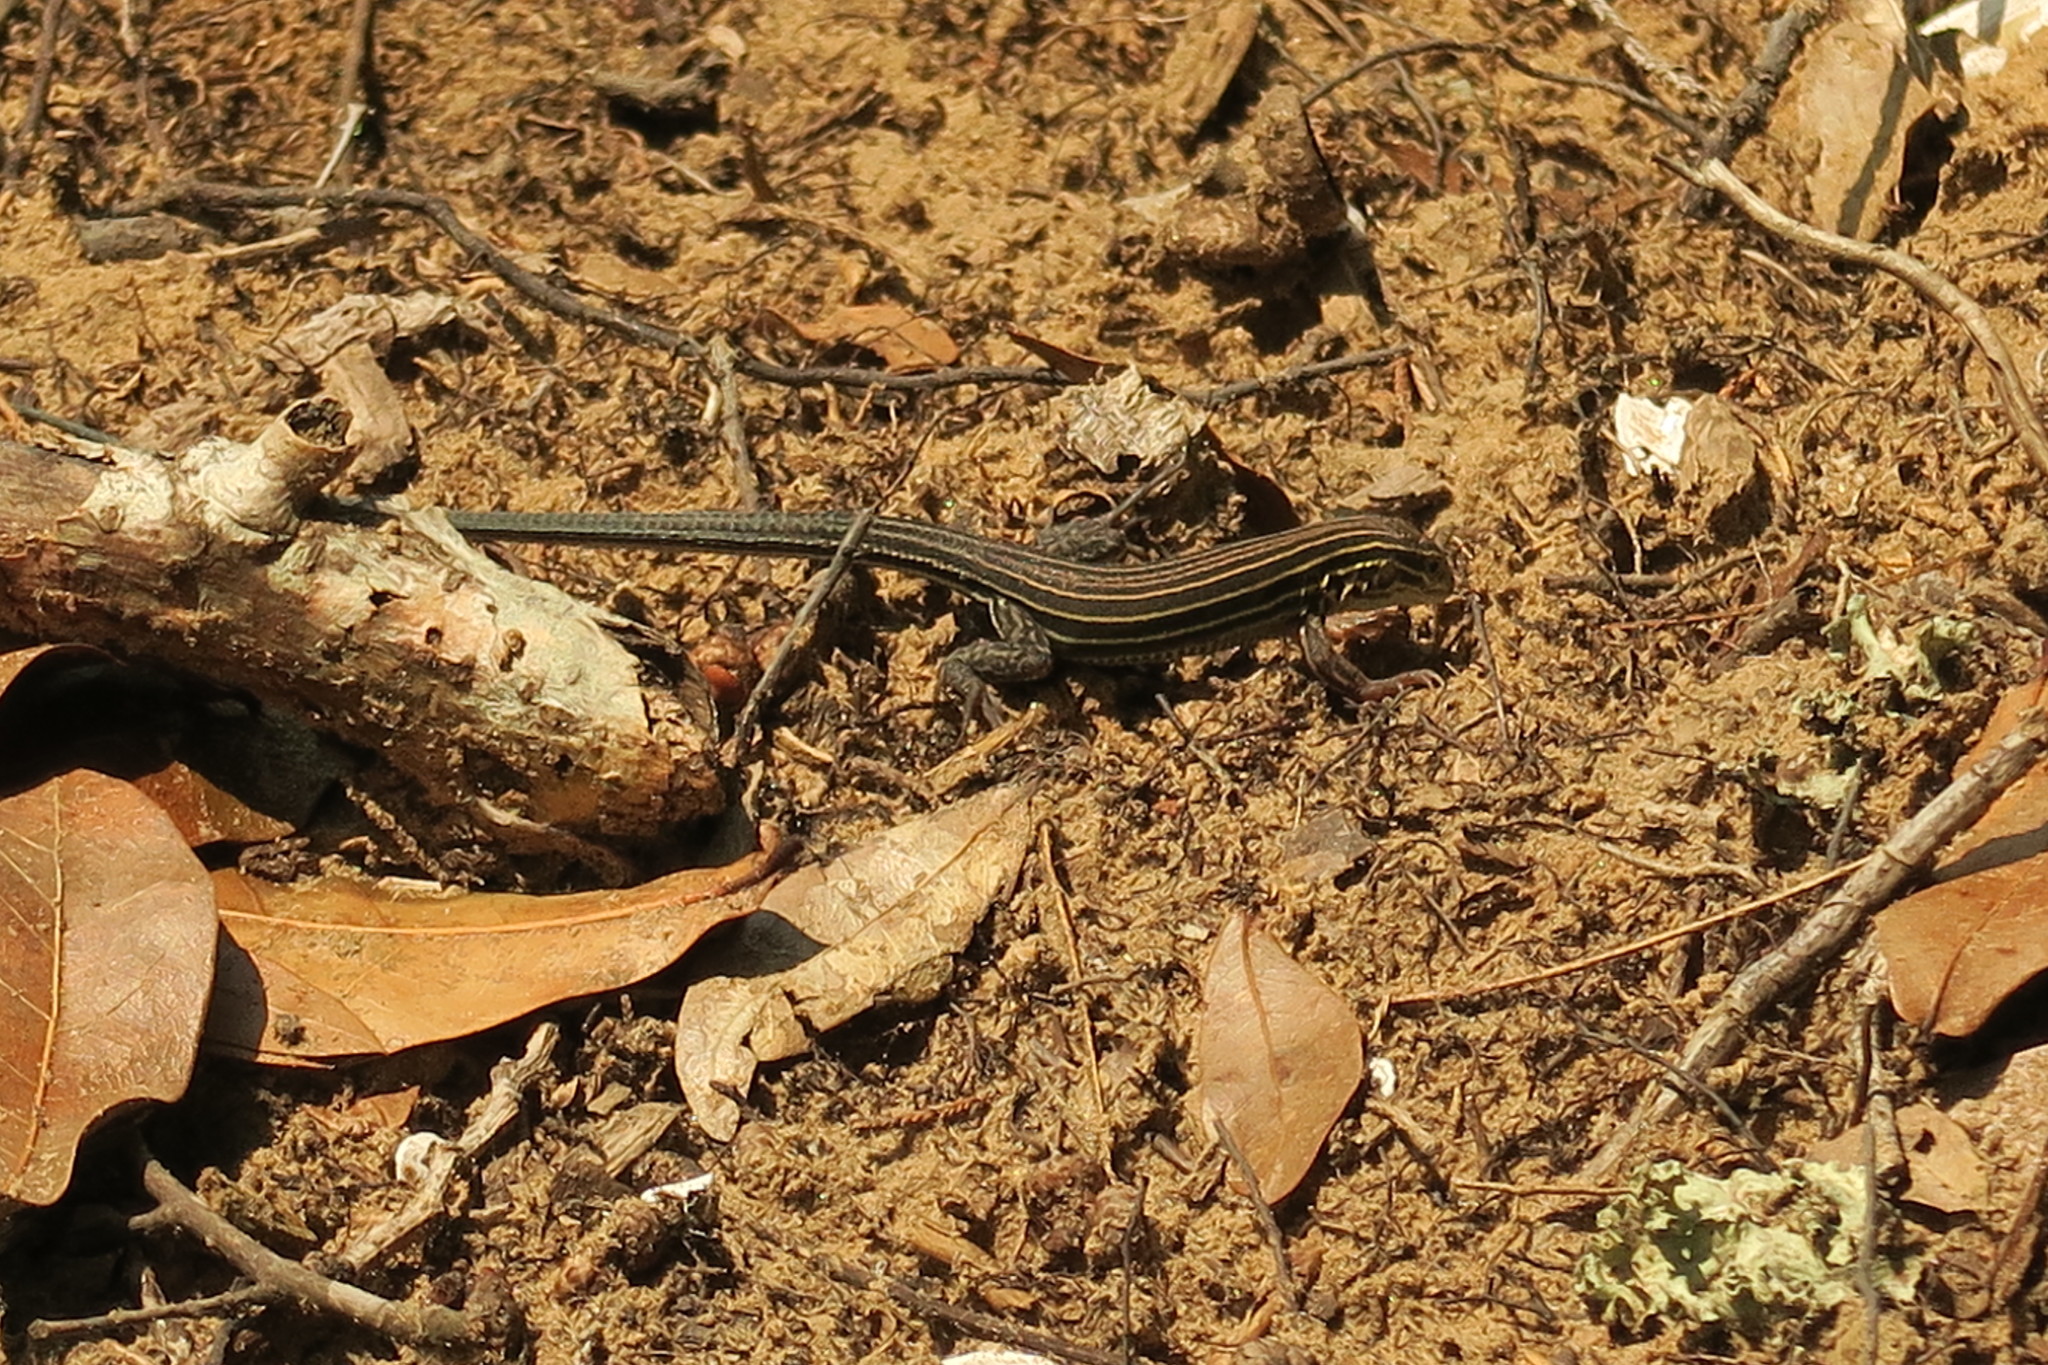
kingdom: Animalia
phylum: Chordata
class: Squamata
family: Teiidae
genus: Aspidoscelis
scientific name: Aspidoscelis sexlineatus
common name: Six-lined racerunner
